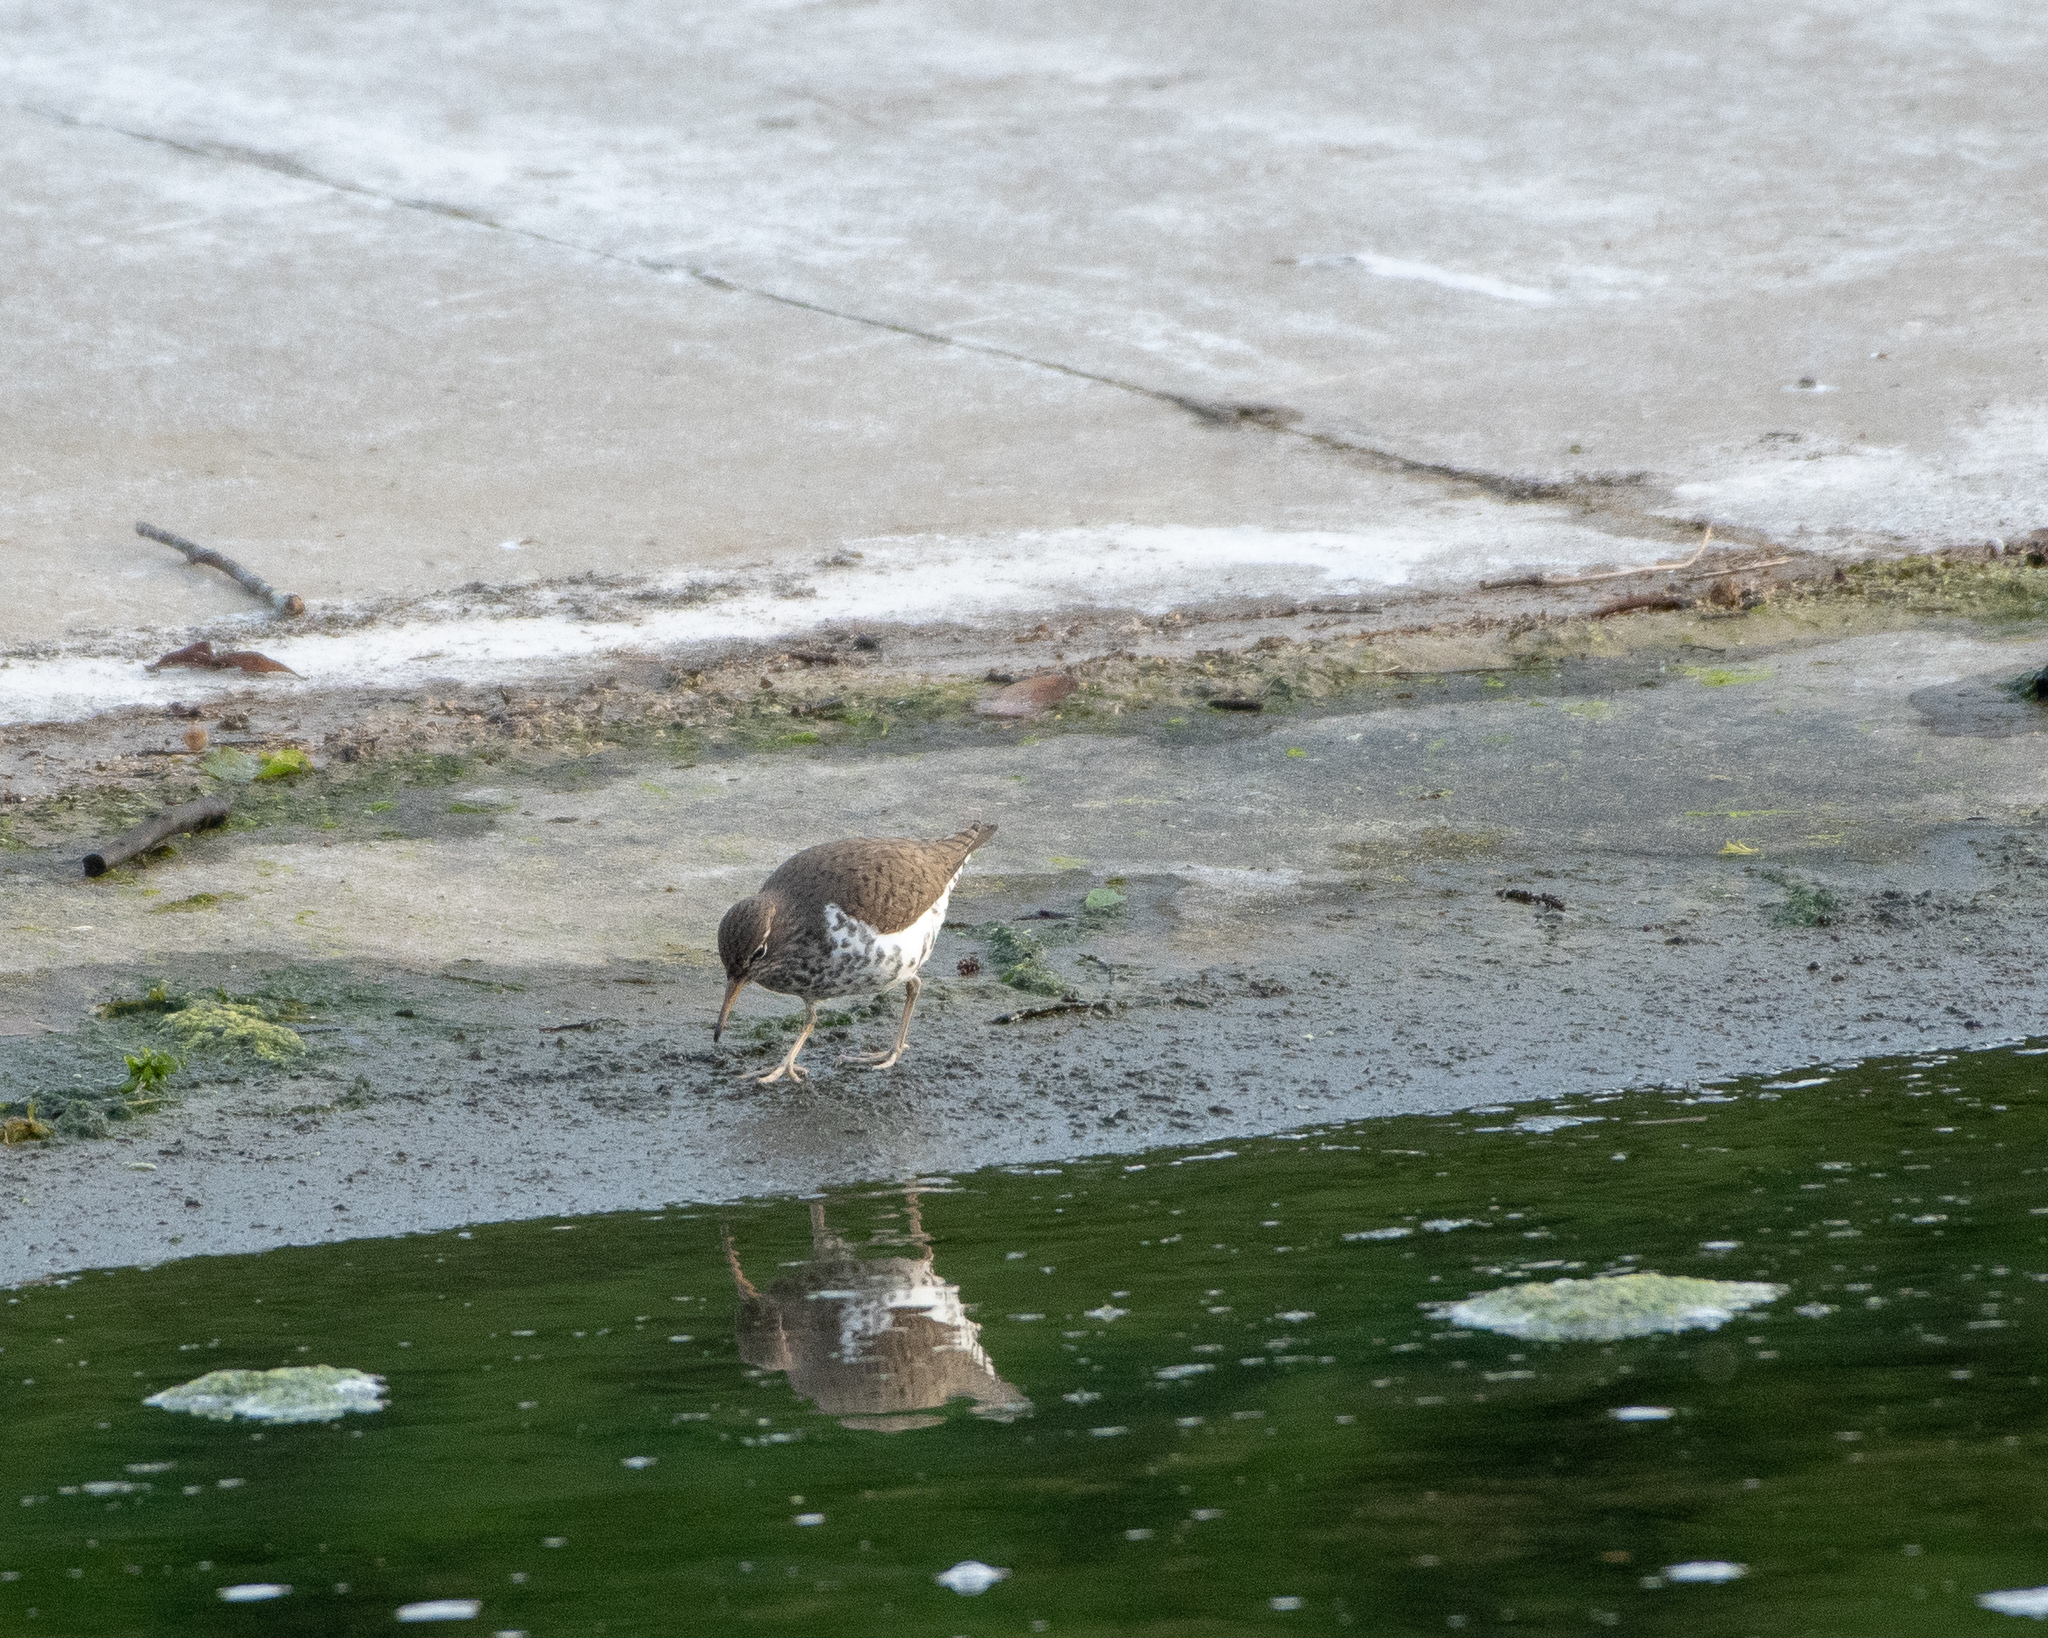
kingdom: Animalia
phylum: Chordata
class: Aves
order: Charadriiformes
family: Scolopacidae
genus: Actitis
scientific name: Actitis macularius
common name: Spotted sandpiper
